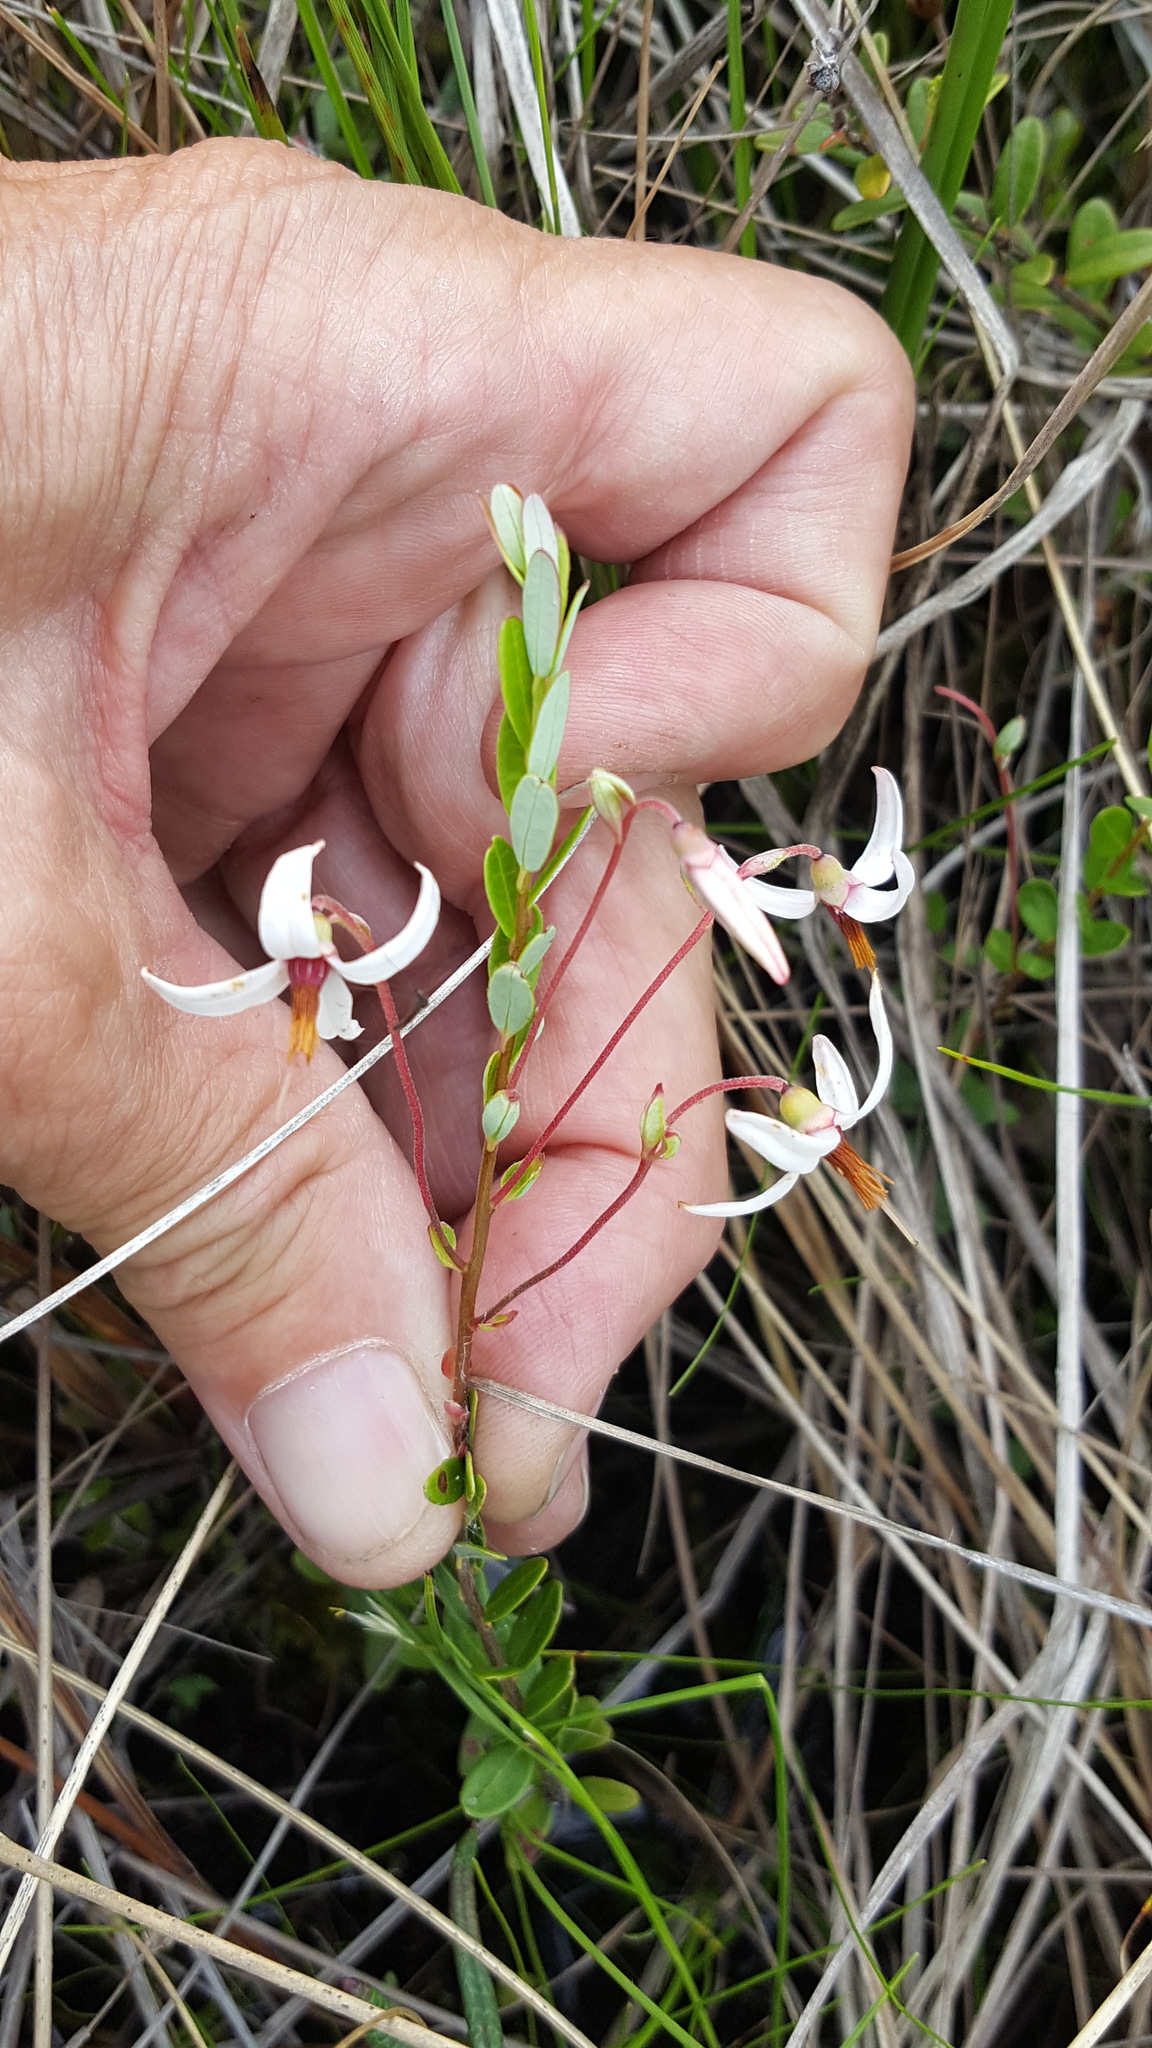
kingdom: Plantae
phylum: Tracheophyta
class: Magnoliopsida
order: Ericales
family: Ericaceae
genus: Vaccinium
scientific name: Vaccinium macrocarpon
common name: American cranberry
